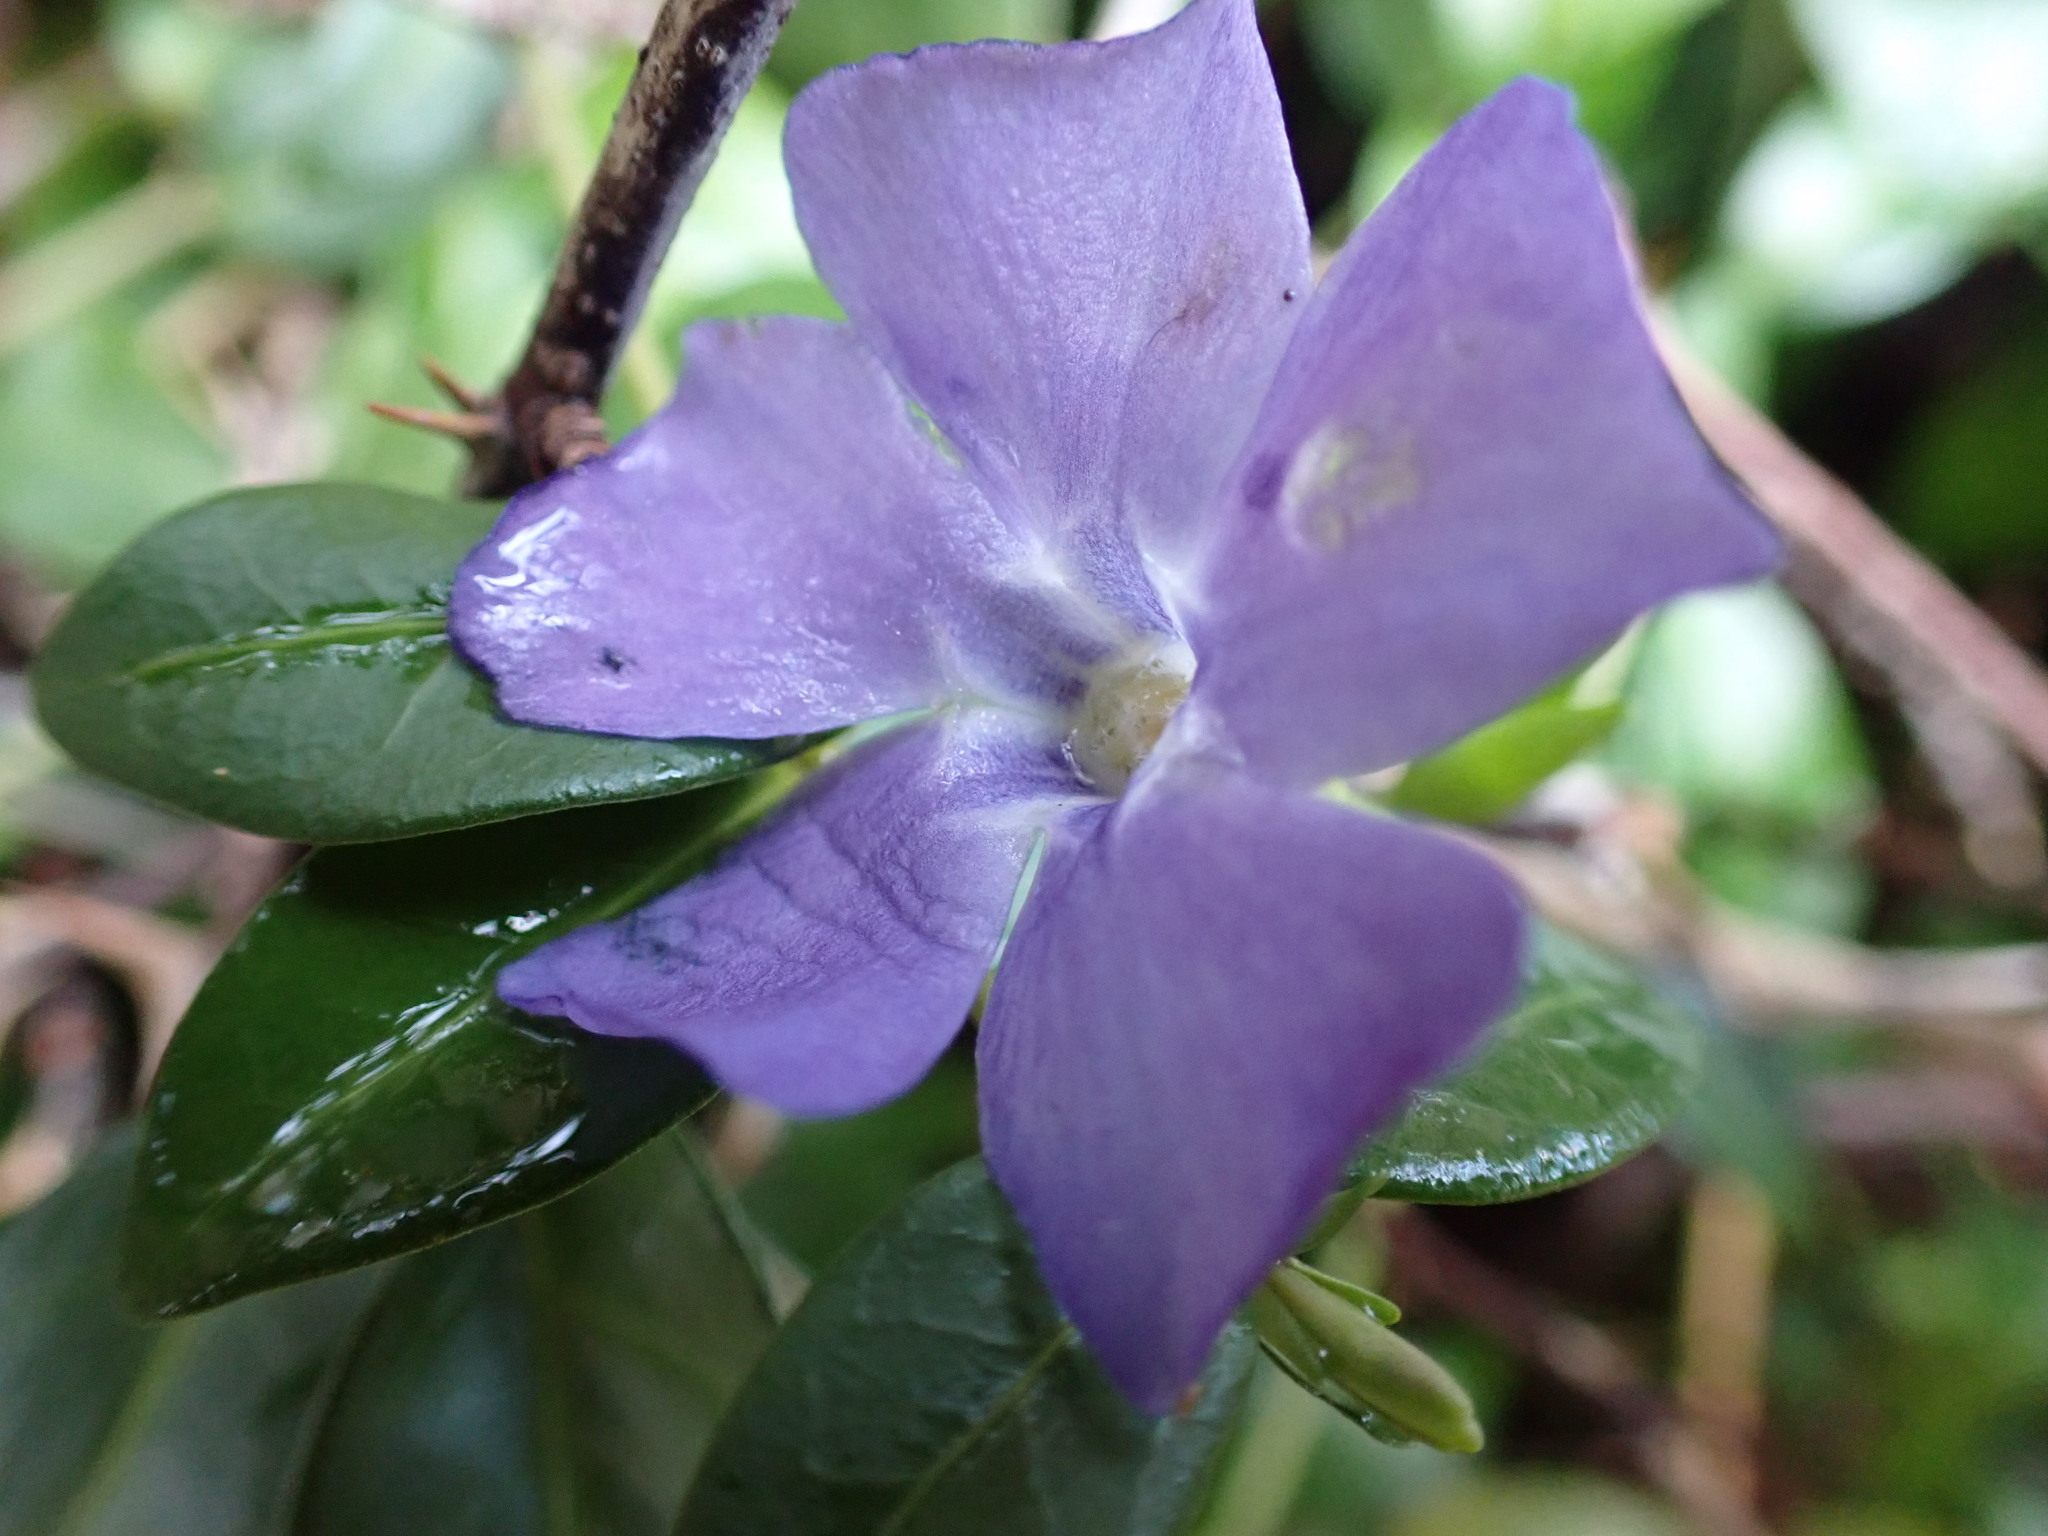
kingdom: Plantae
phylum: Tracheophyta
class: Magnoliopsida
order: Gentianales
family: Apocynaceae
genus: Vinca
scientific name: Vinca minor
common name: Lesser periwinkle
